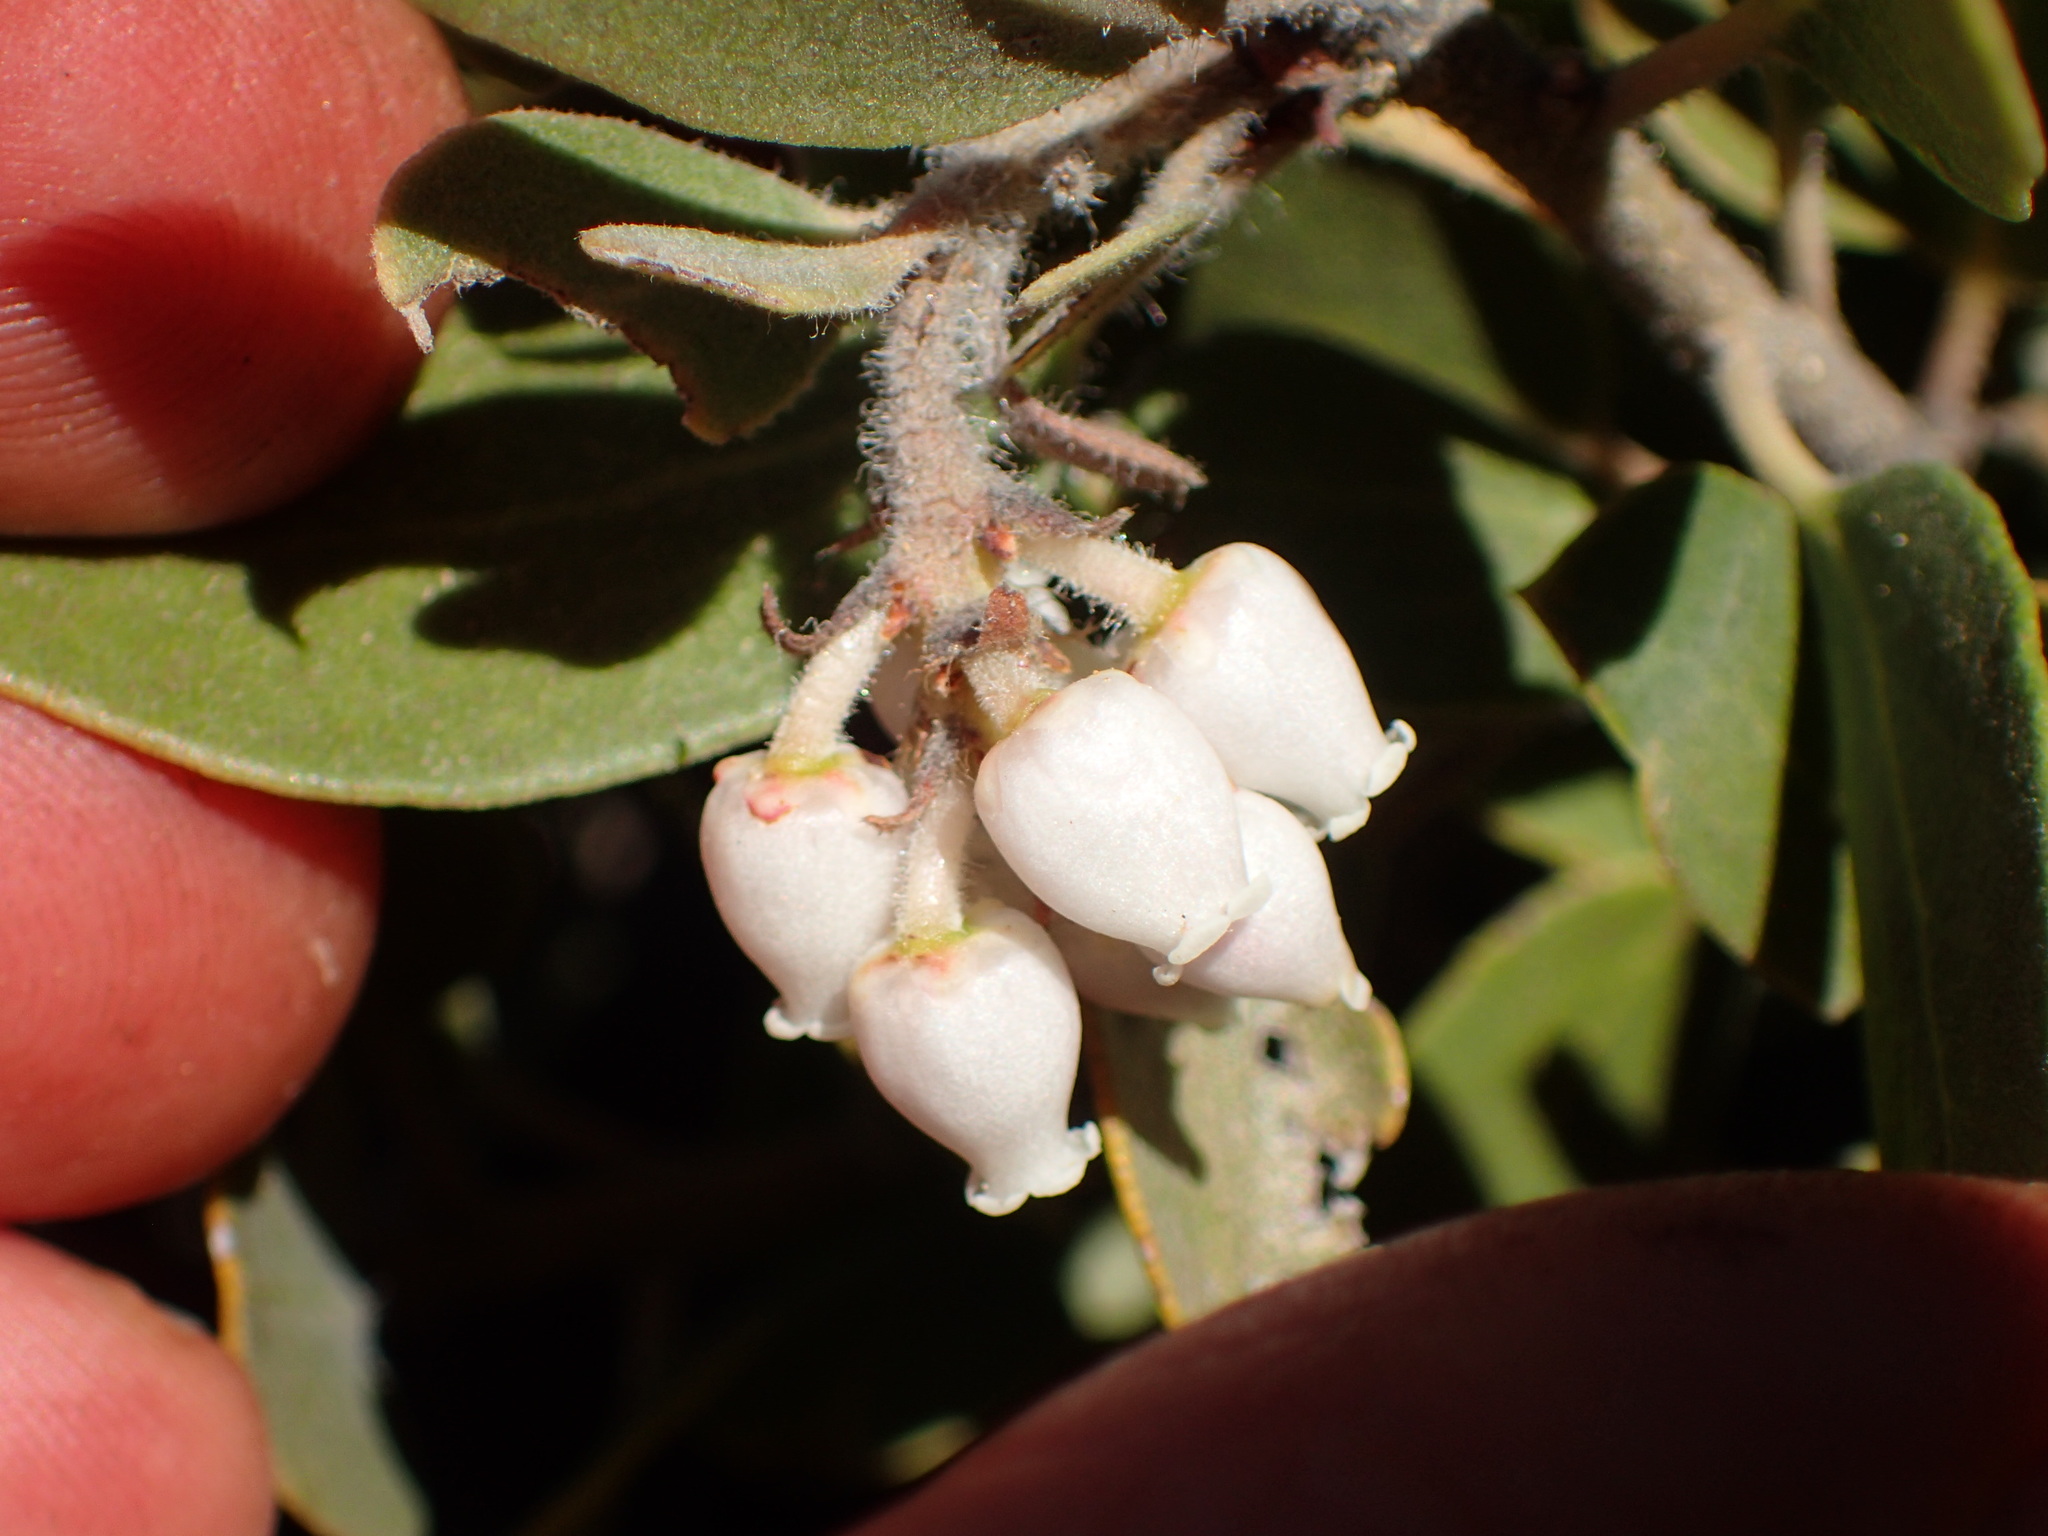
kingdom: Plantae
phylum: Tracheophyta
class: Magnoliopsida
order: Ericales
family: Ericaceae
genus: Arctostaphylos
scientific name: Arctostaphylos glandulosa
